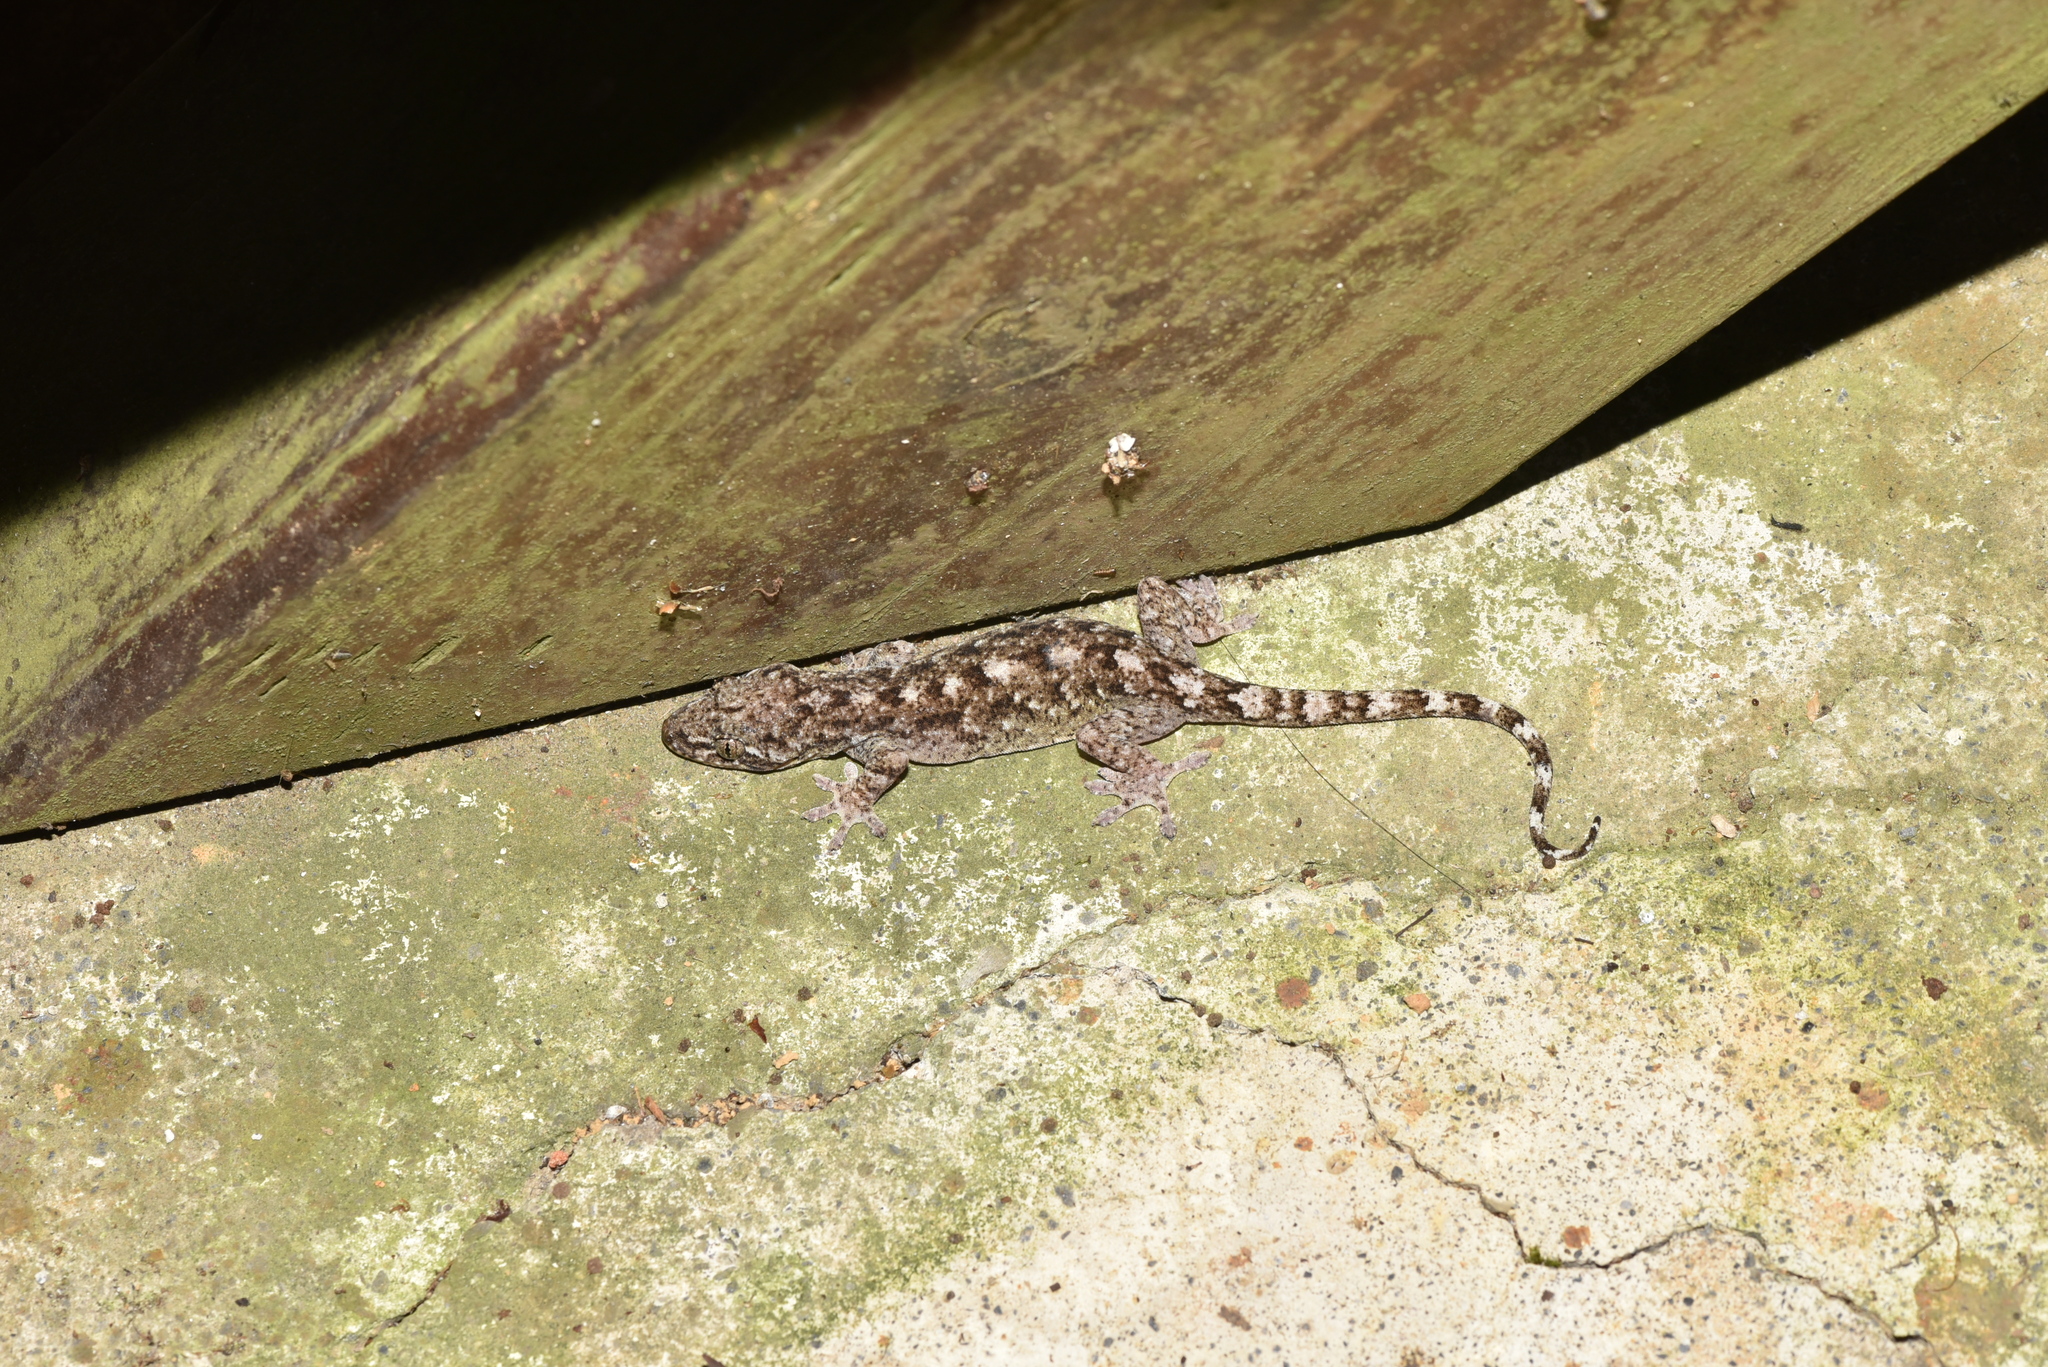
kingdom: Animalia
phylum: Chordata
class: Squamata
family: Gekkonidae
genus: Gekko
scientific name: Gekko hokouensis
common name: Kwangsi gecko
